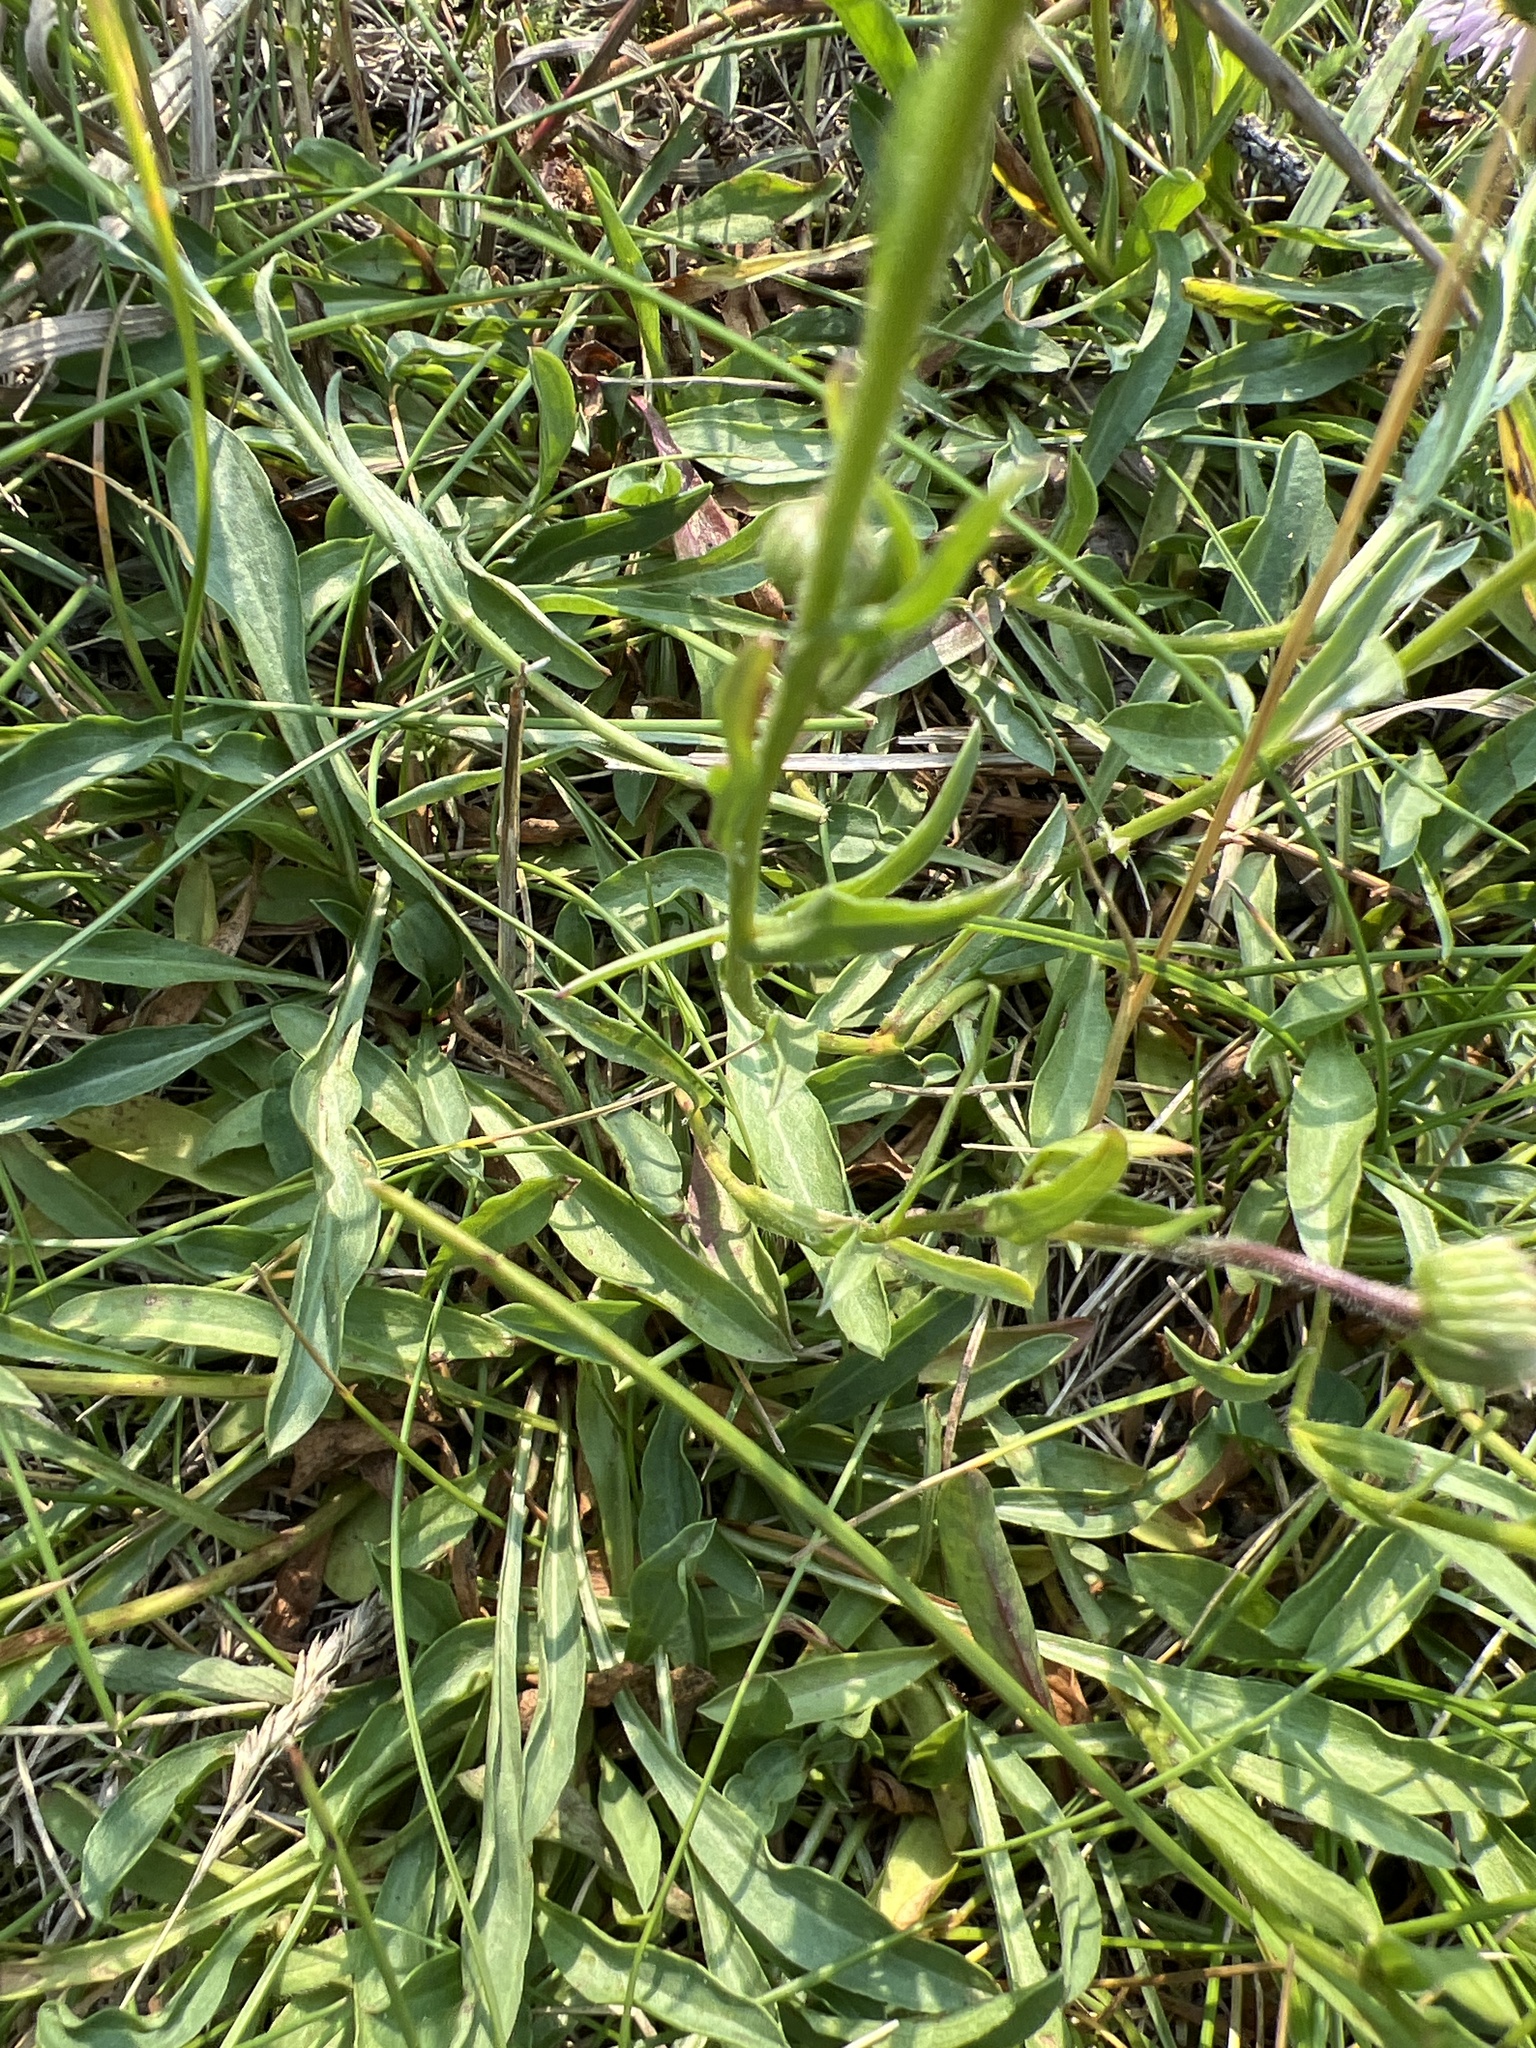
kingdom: Plantae
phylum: Tracheophyta
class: Magnoliopsida
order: Asterales
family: Asteraceae
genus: Erigeron
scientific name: Erigeron glabellus
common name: Smooth fleabane
